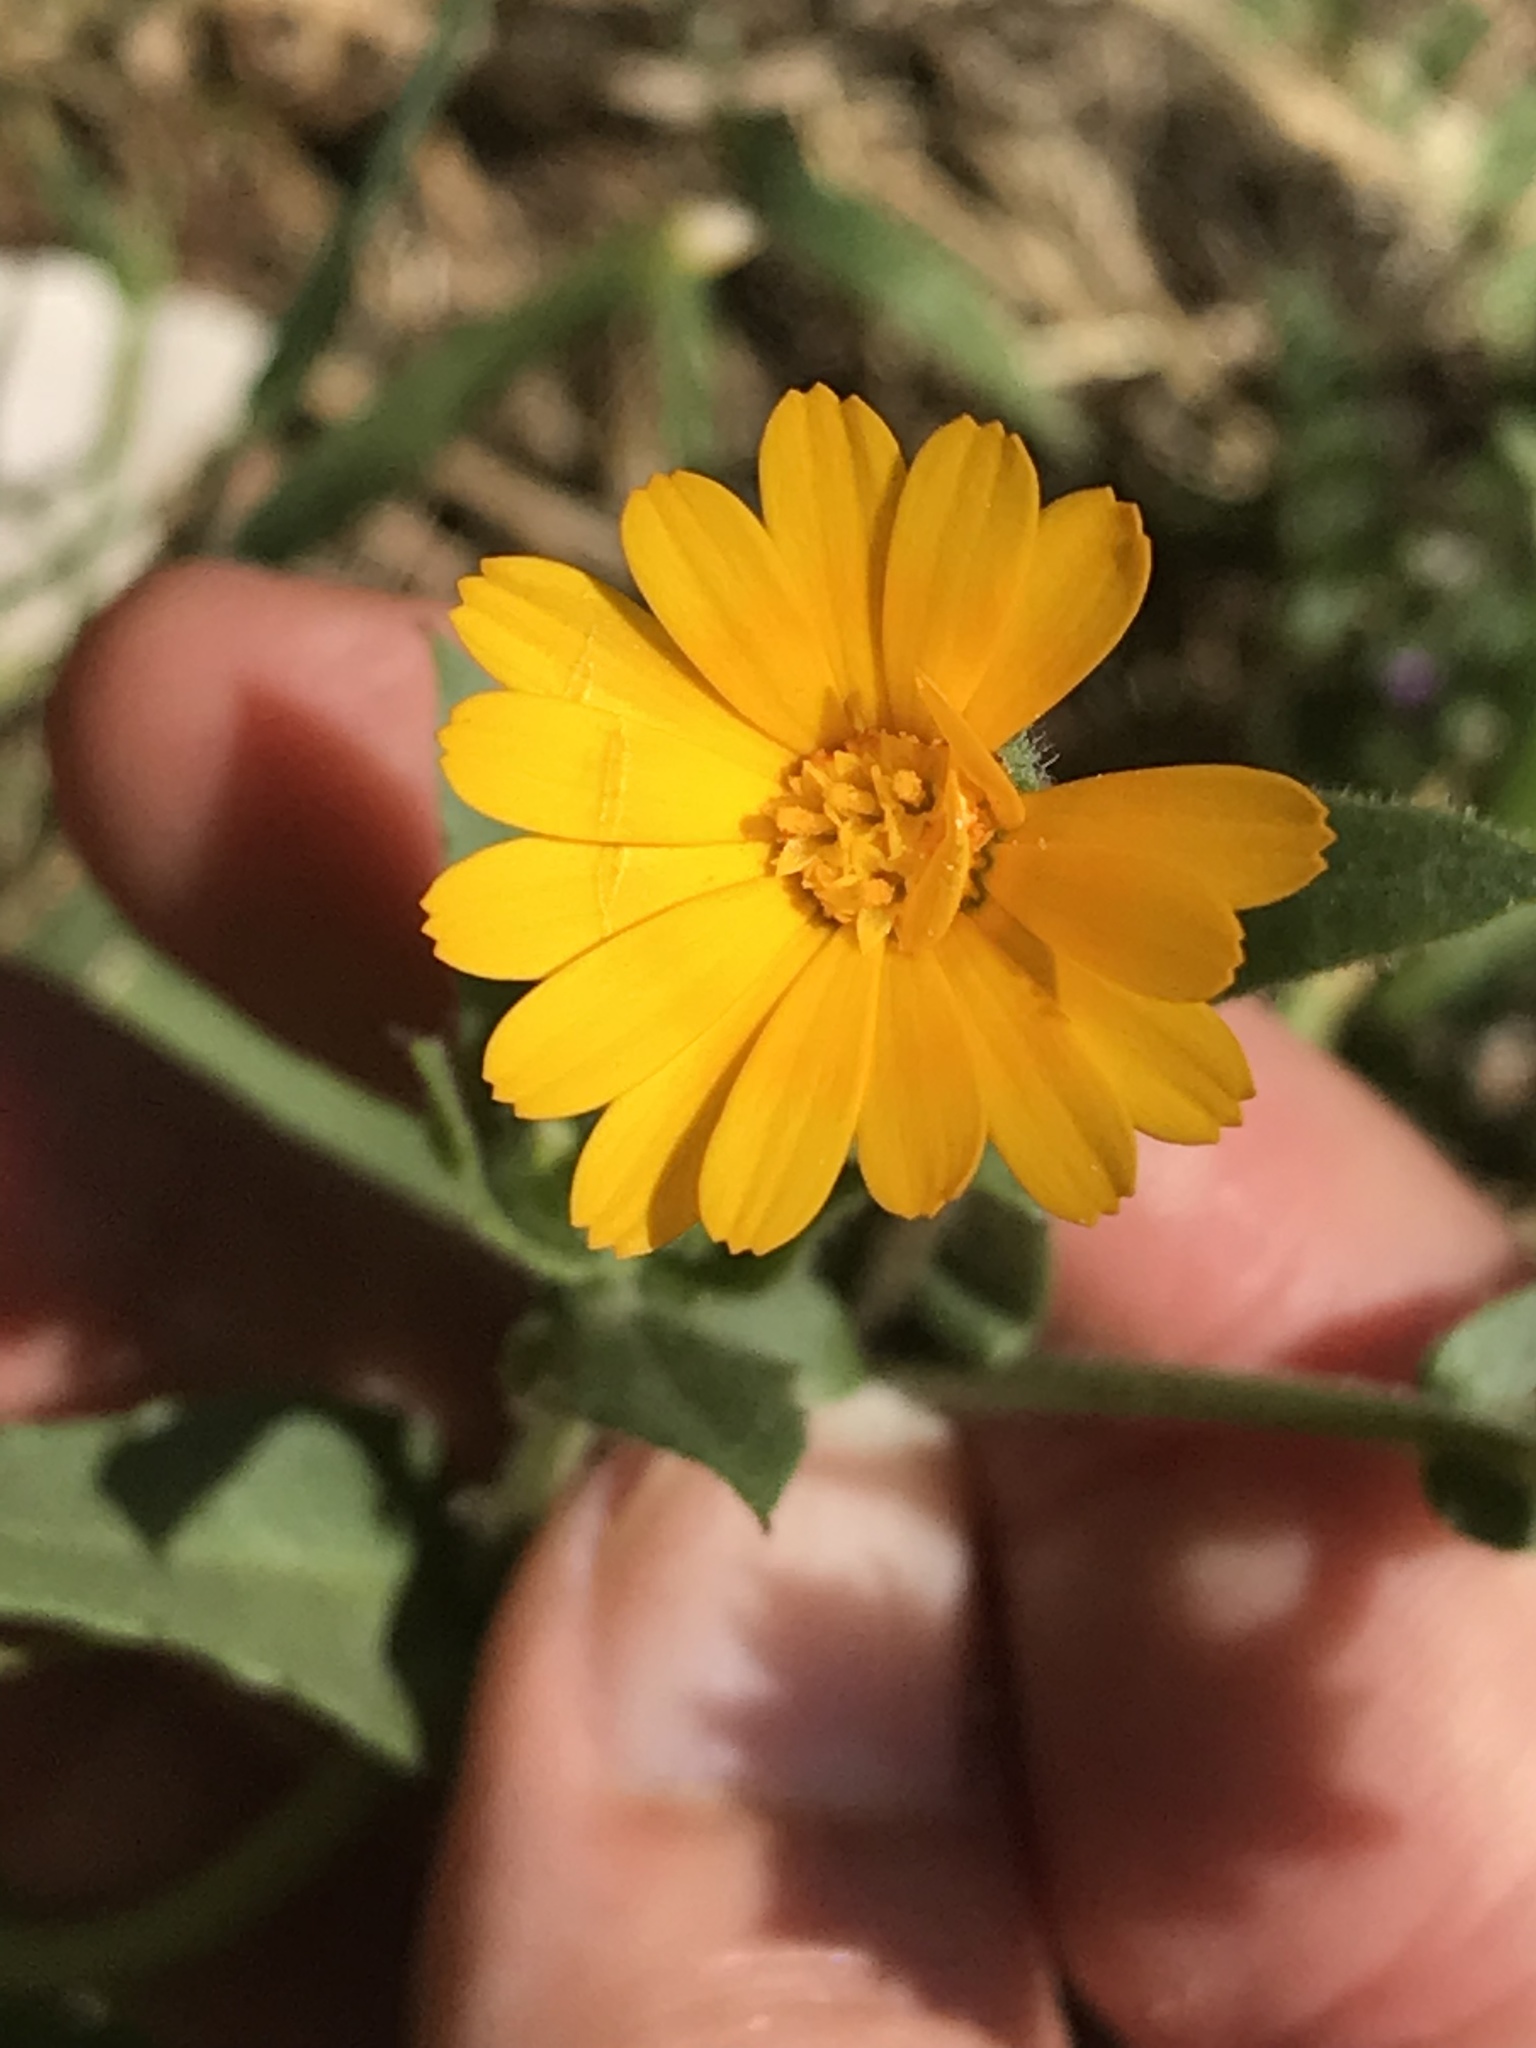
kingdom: Plantae
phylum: Tracheophyta
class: Magnoliopsida
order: Asterales
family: Asteraceae
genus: Calendula
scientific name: Calendula arvensis
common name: Field marigold
